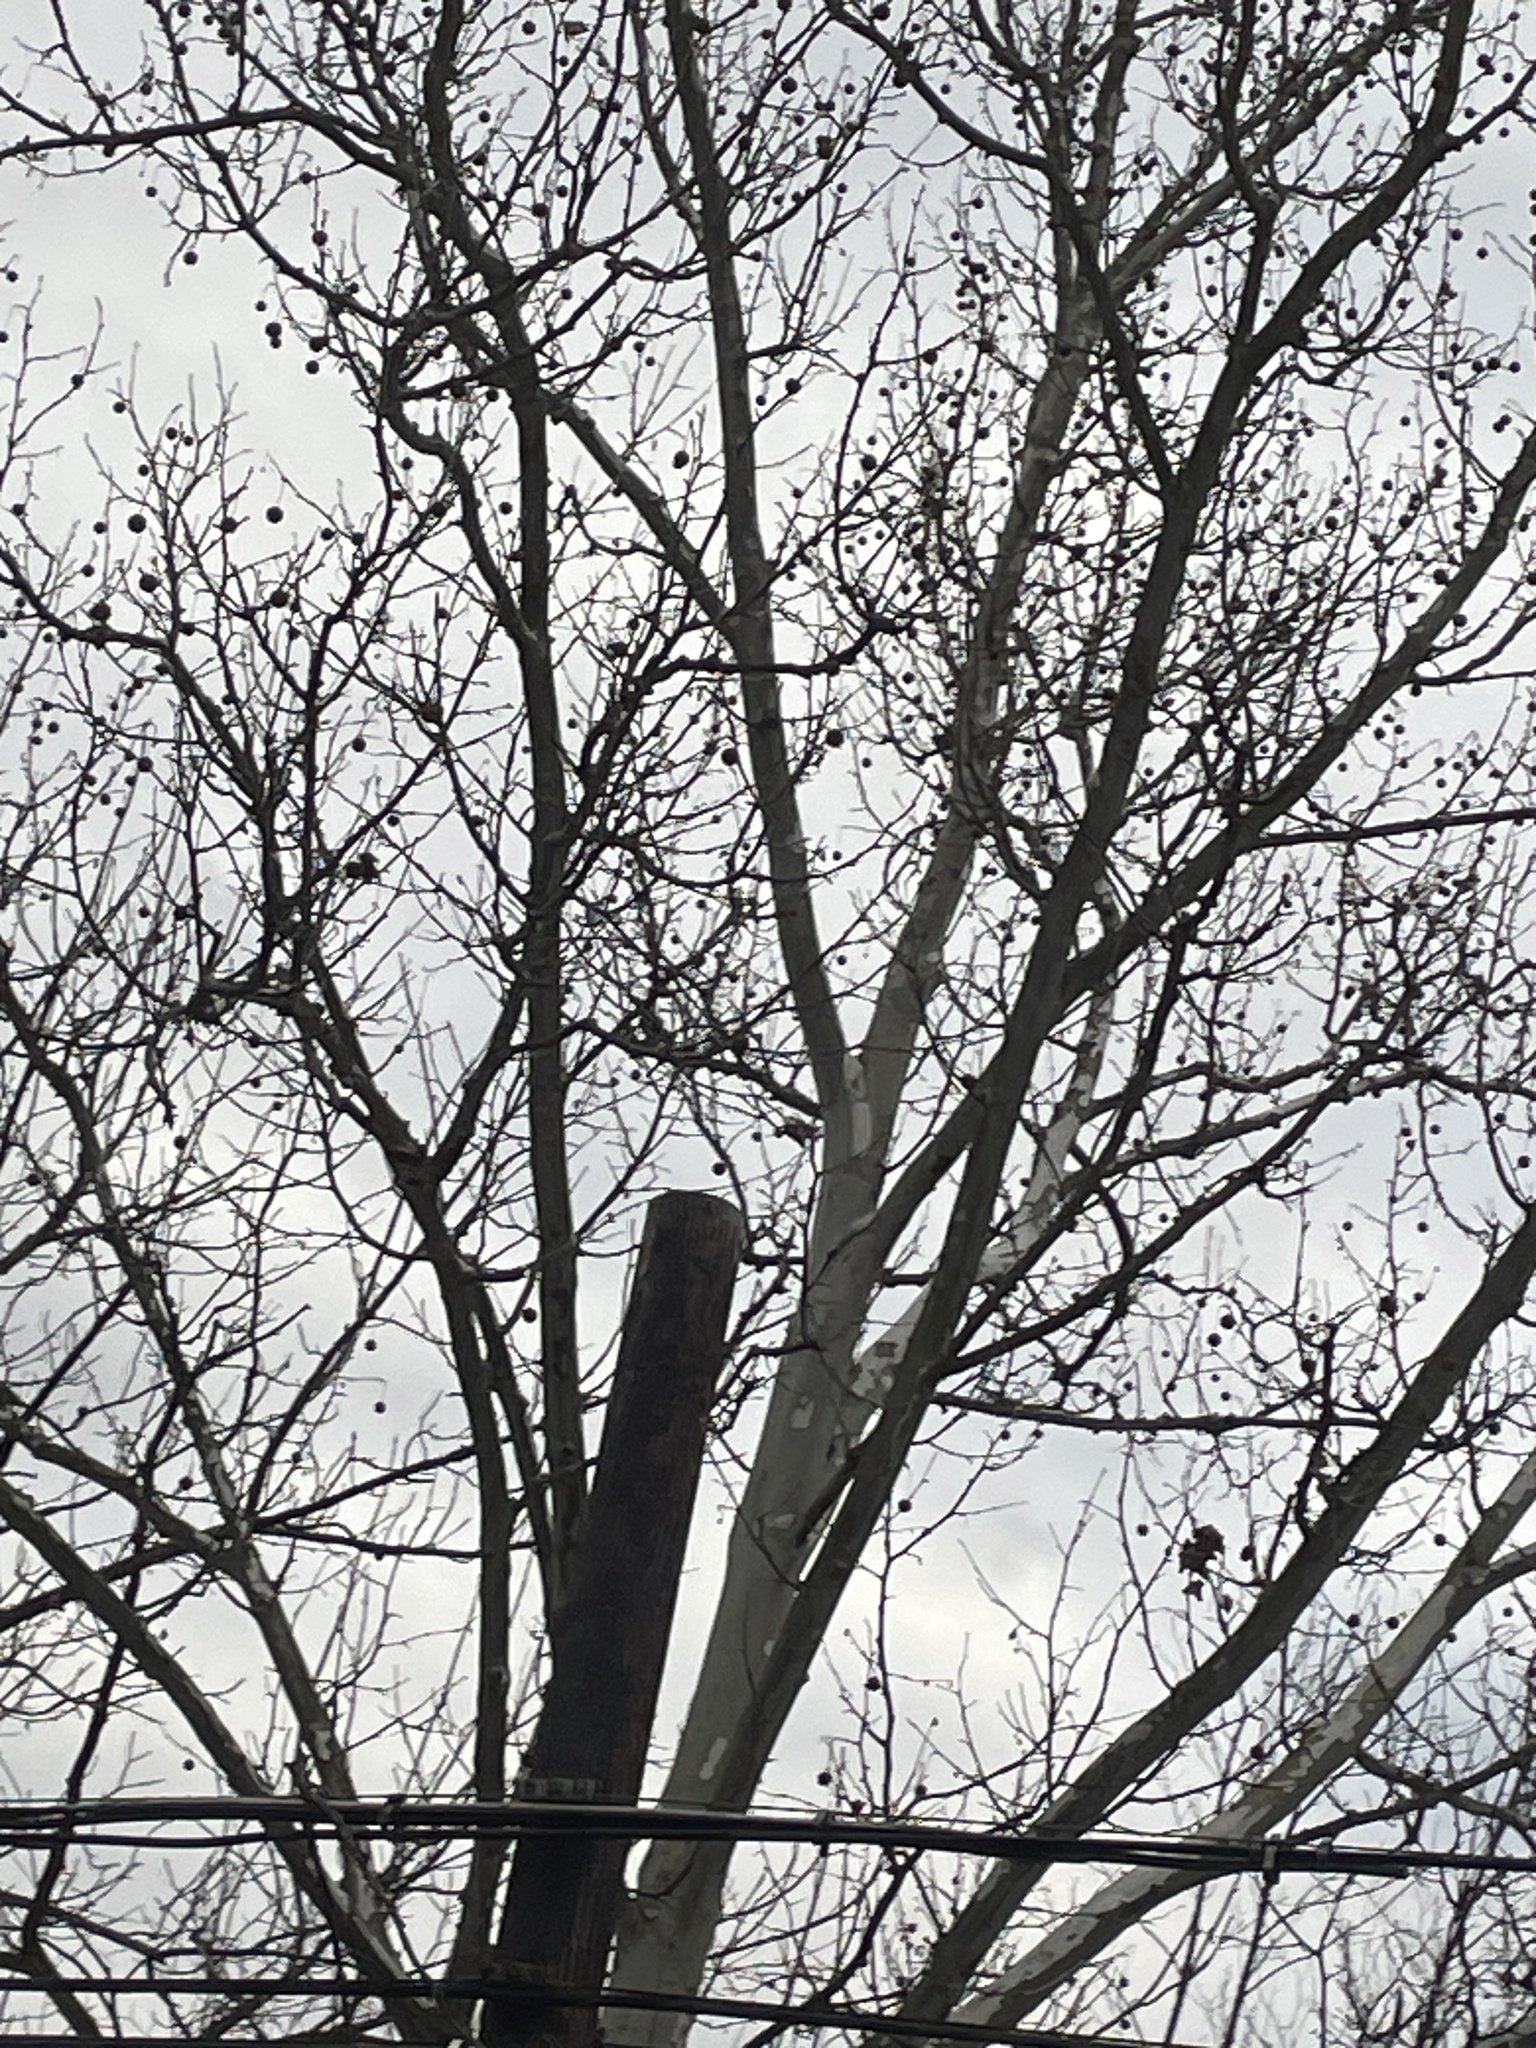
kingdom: Plantae
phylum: Tracheophyta
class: Magnoliopsida
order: Proteales
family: Platanaceae
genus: Platanus
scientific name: Platanus occidentalis
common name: American sycamore
